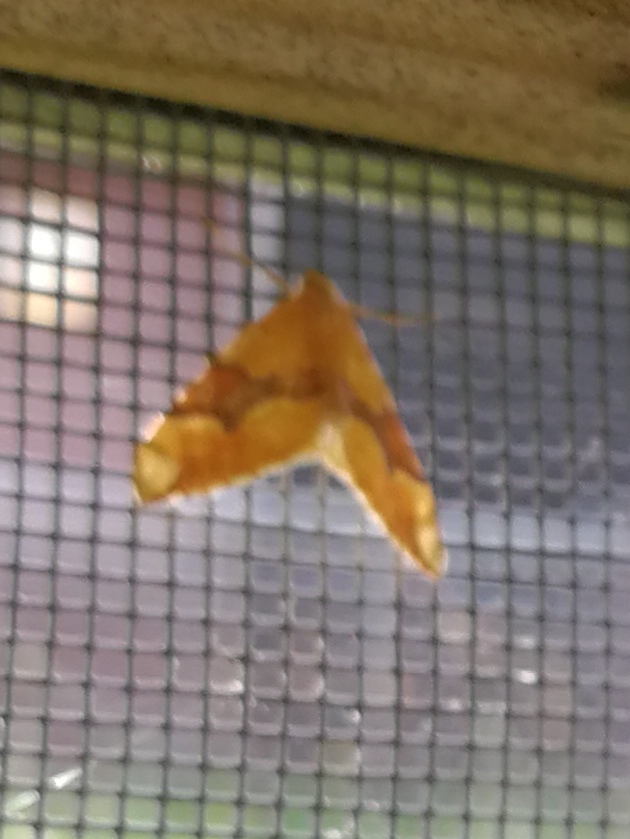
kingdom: Animalia
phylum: Arthropoda
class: Insecta
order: Lepidoptera
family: Geometridae
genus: Cidaria
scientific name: Cidaria fulvata
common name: Barred yellow
